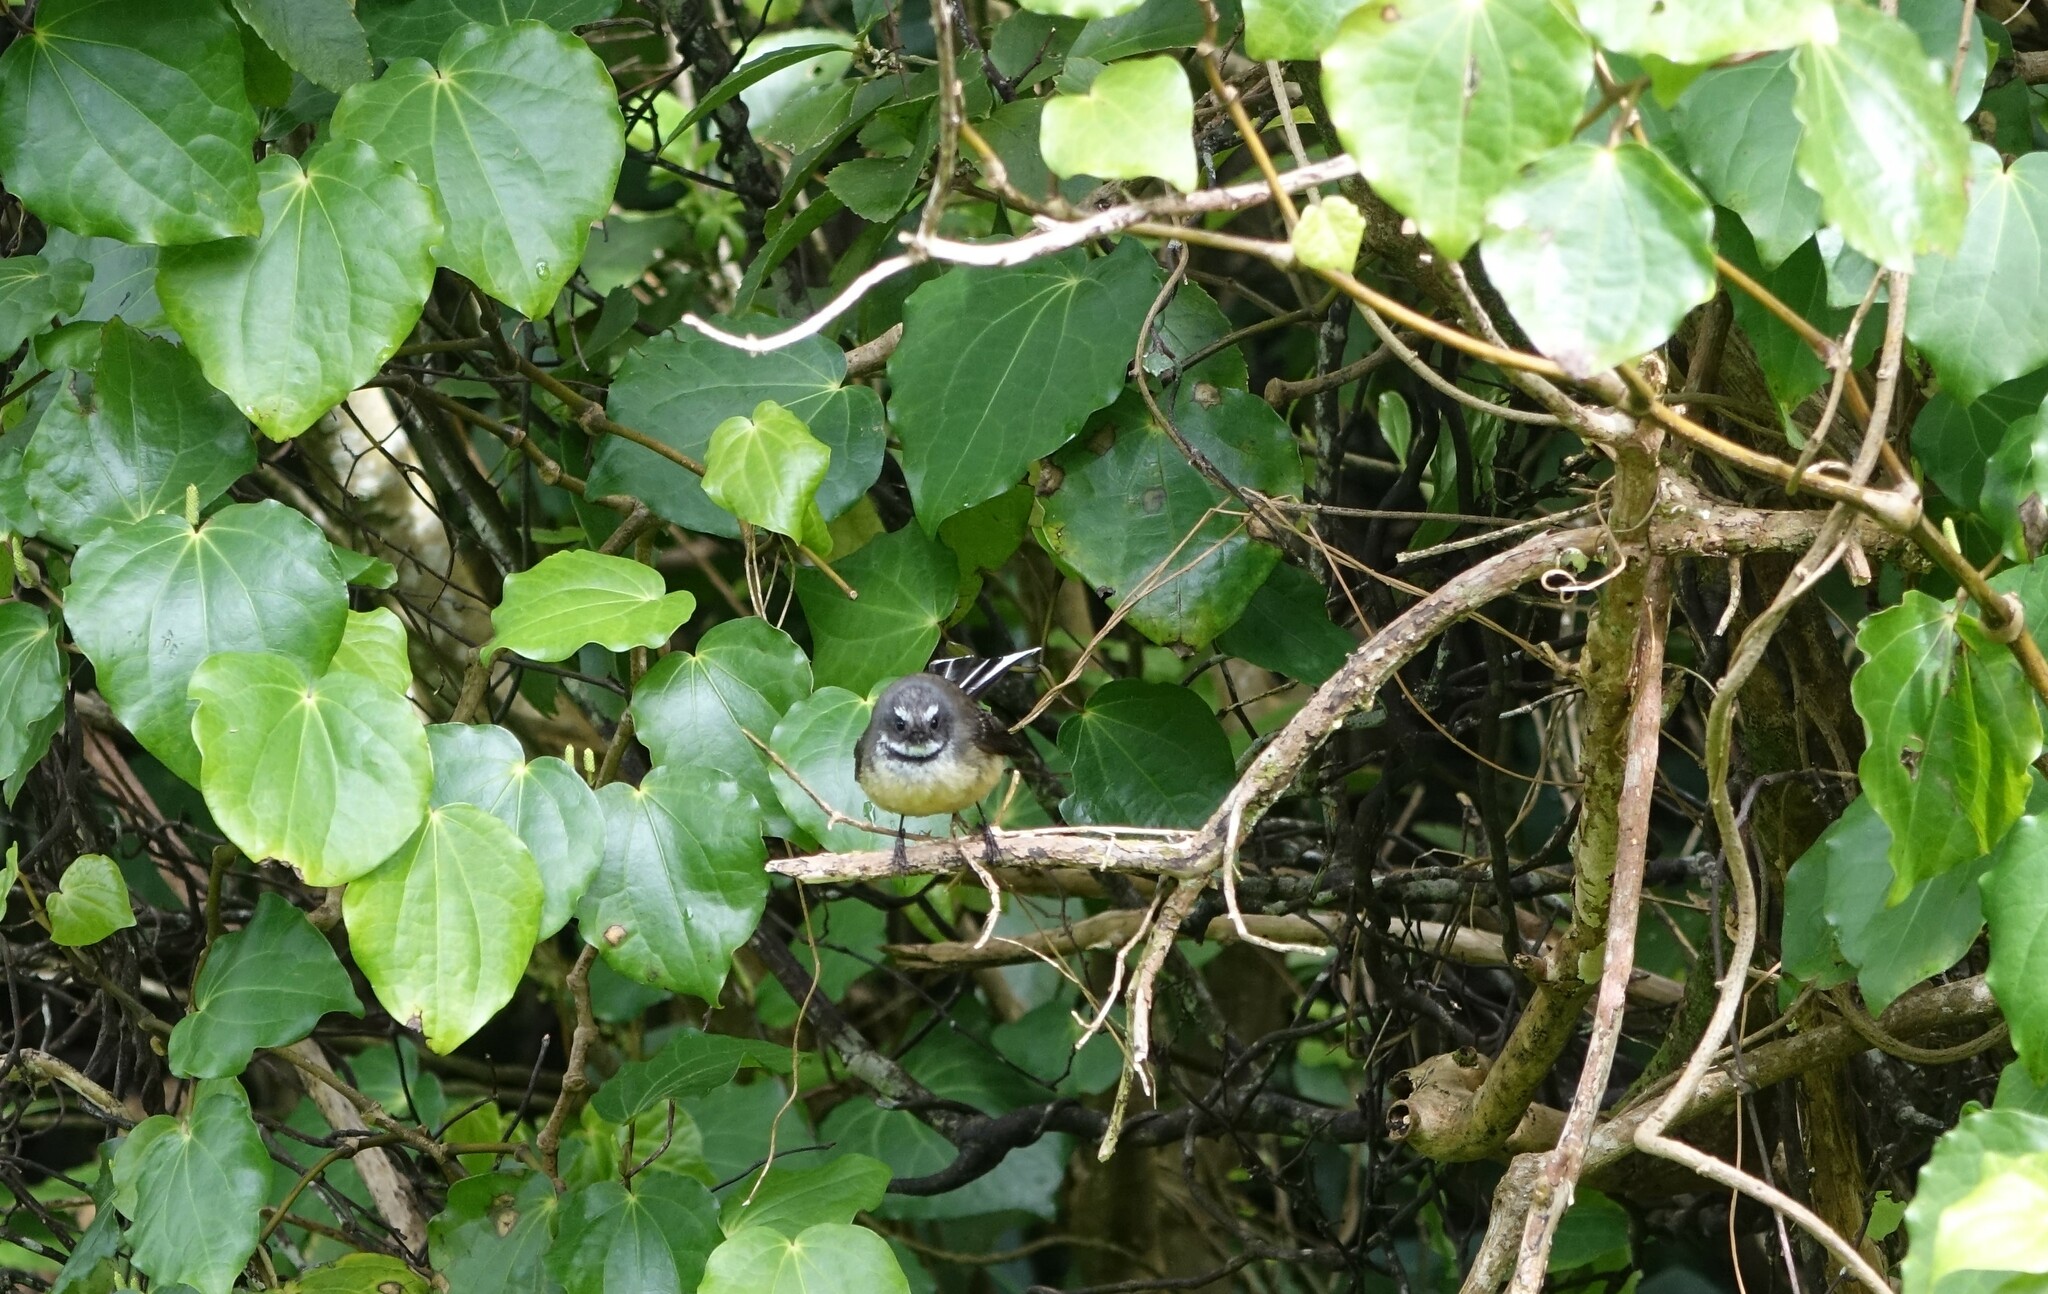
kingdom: Animalia
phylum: Chordata
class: Aves
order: Passeriformes
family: Rhipiduridae
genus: Rhipidura
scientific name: Rhipidura fuliginosa
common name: New zealand fantail
